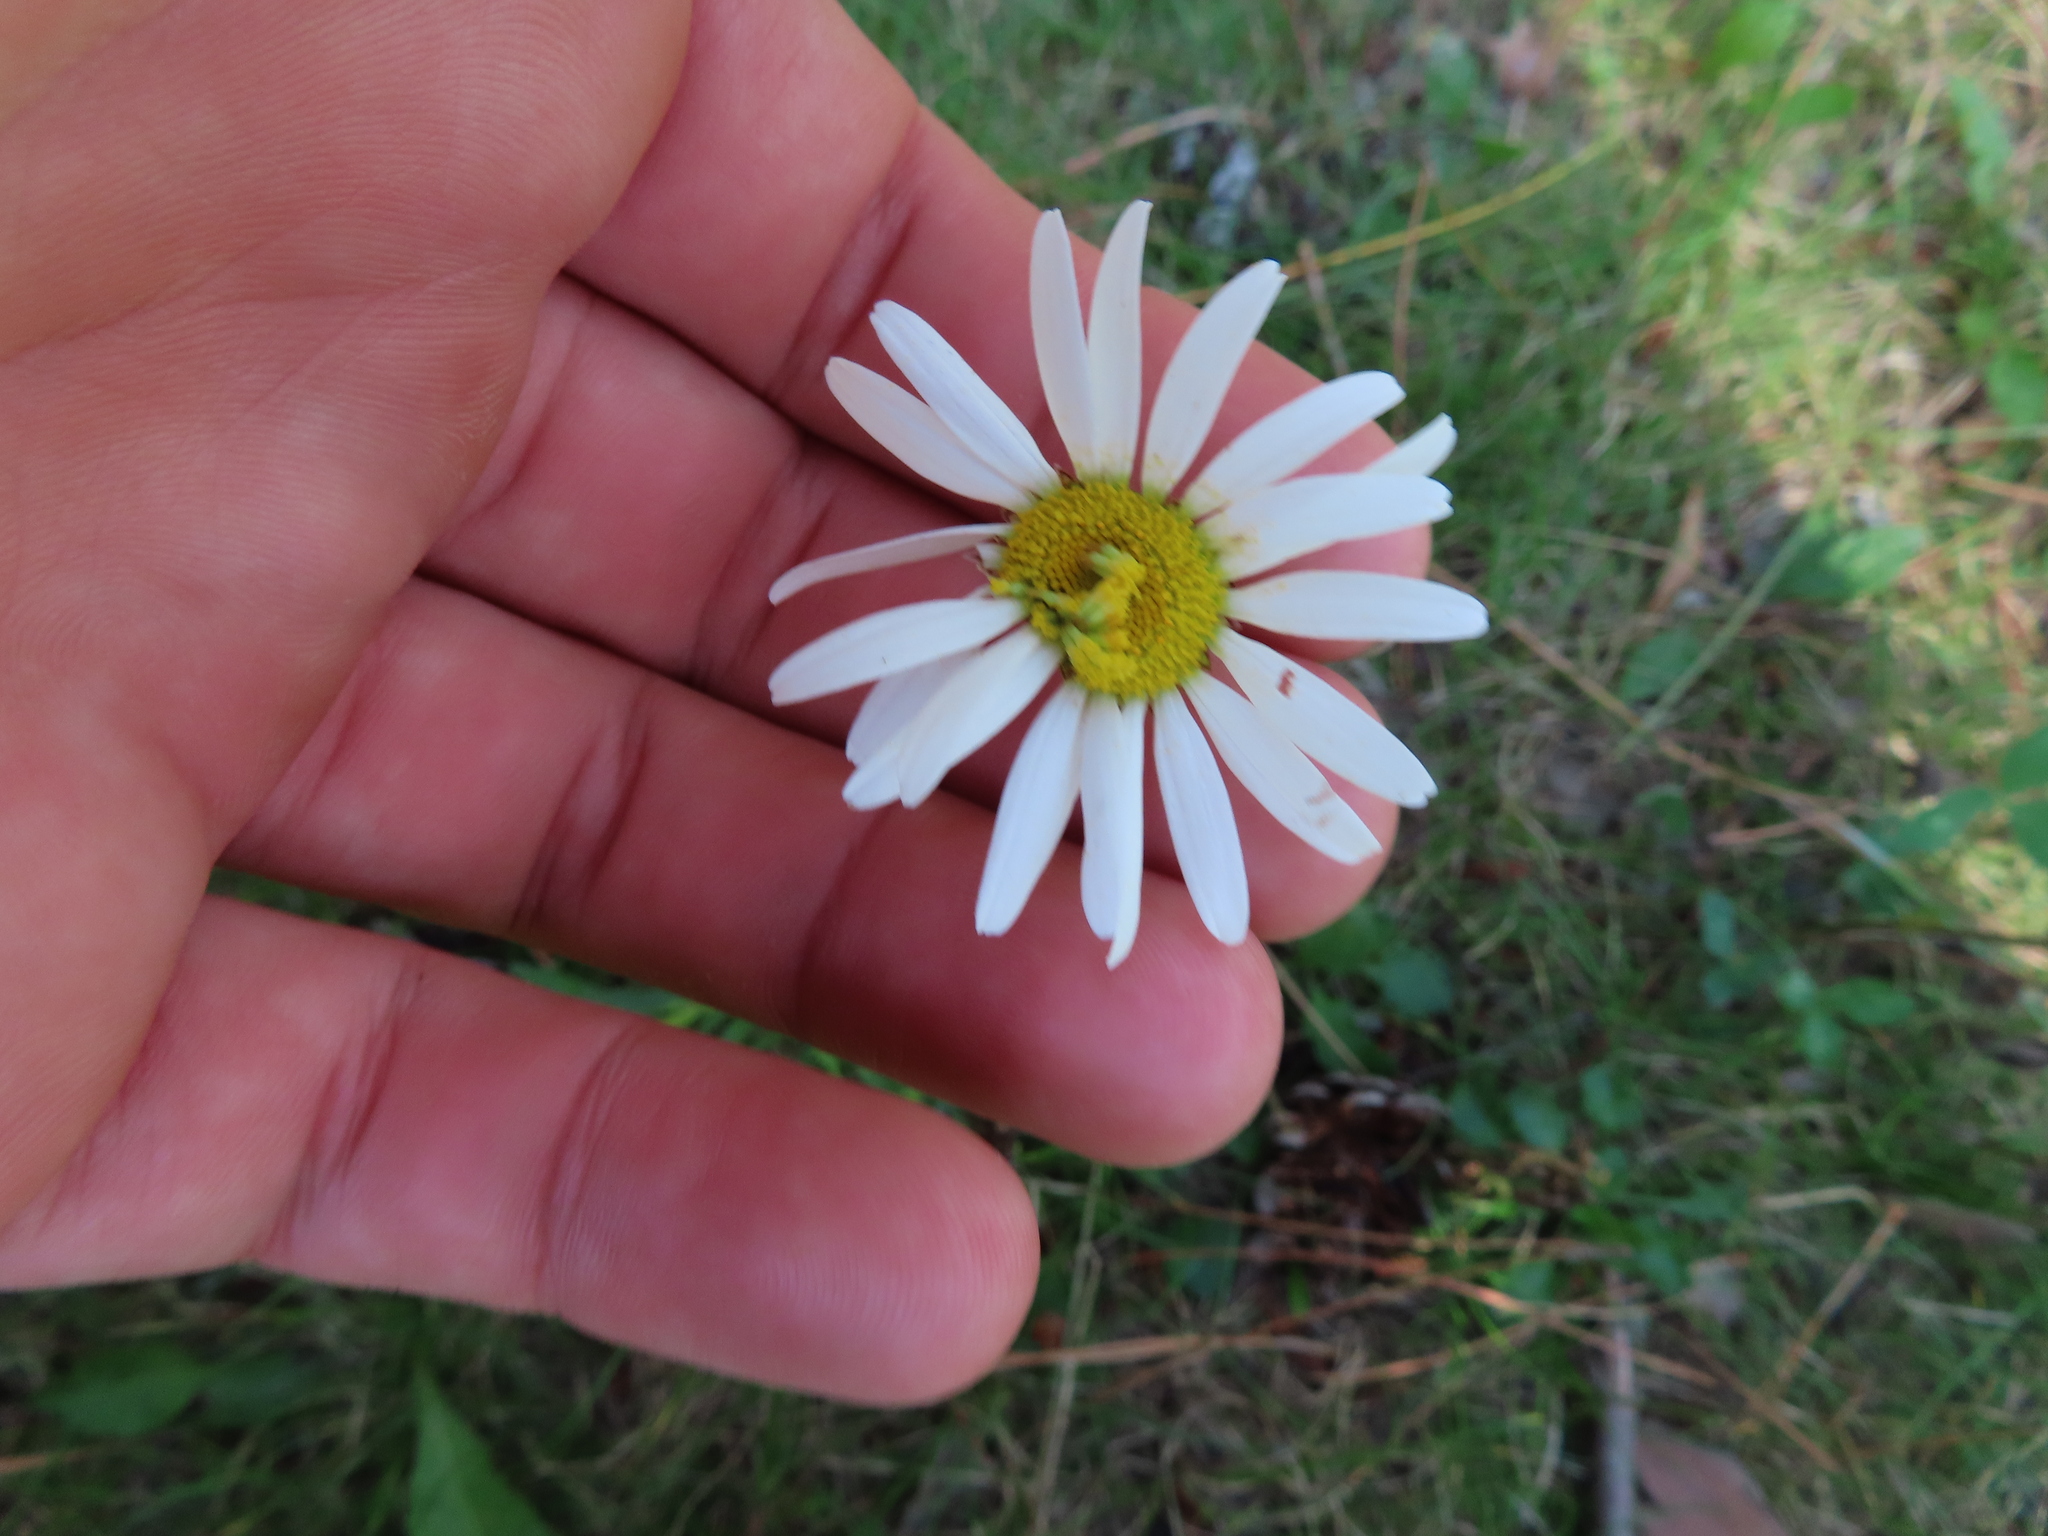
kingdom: Plantae
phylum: Tracheophyta
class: Magnoliopsida
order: Asterales
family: Asteraceae
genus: Leucanthemum
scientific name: Leucanthemum vulgare
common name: Oxeye daisy
